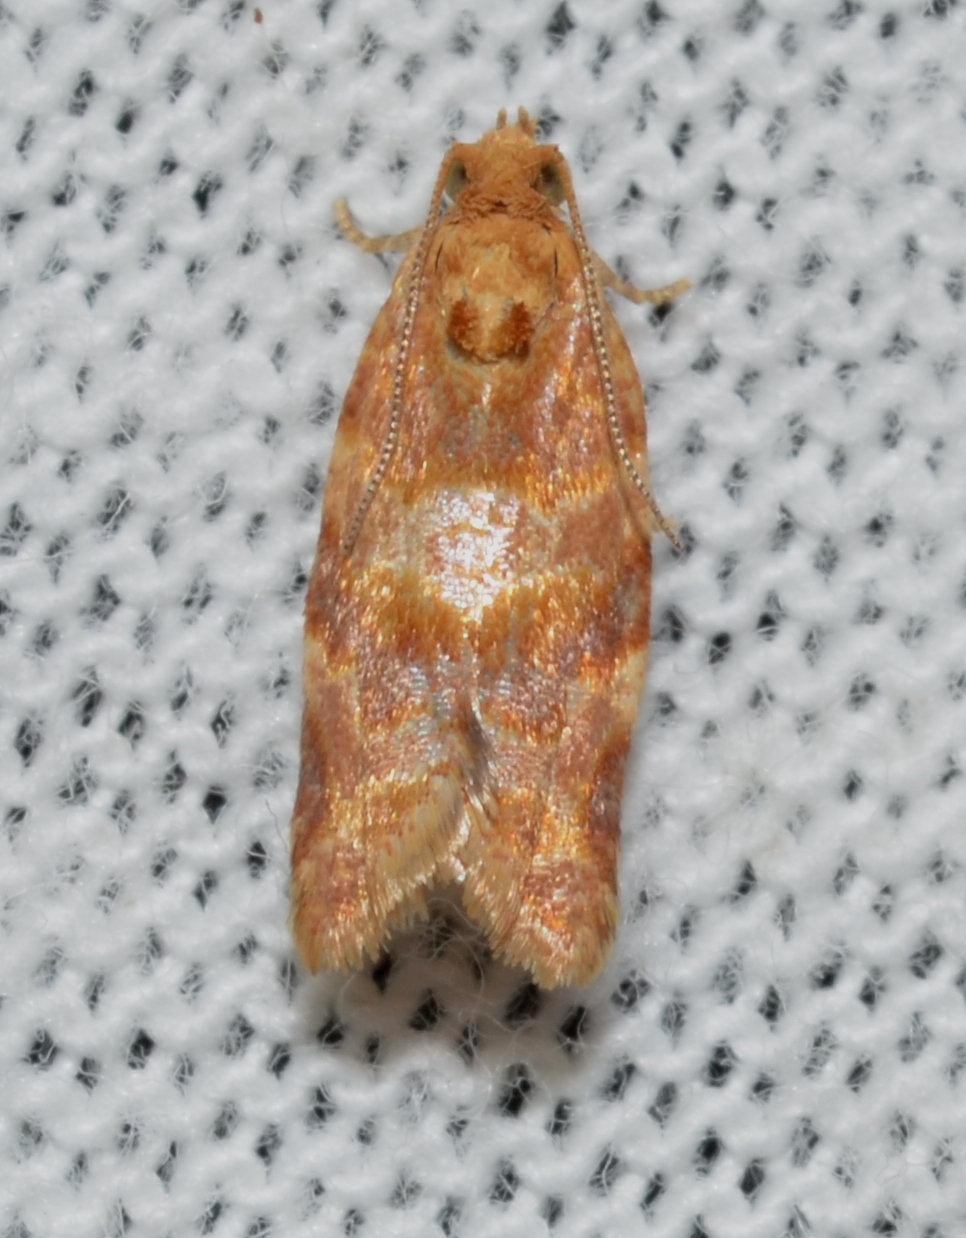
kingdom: Animalia
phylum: Arthropoda
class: Insecta
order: Lepidoptera
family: Tortricidae
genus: Argyrotaenia
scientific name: Argyrotaenia pinatubana
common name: Pine tube moth
